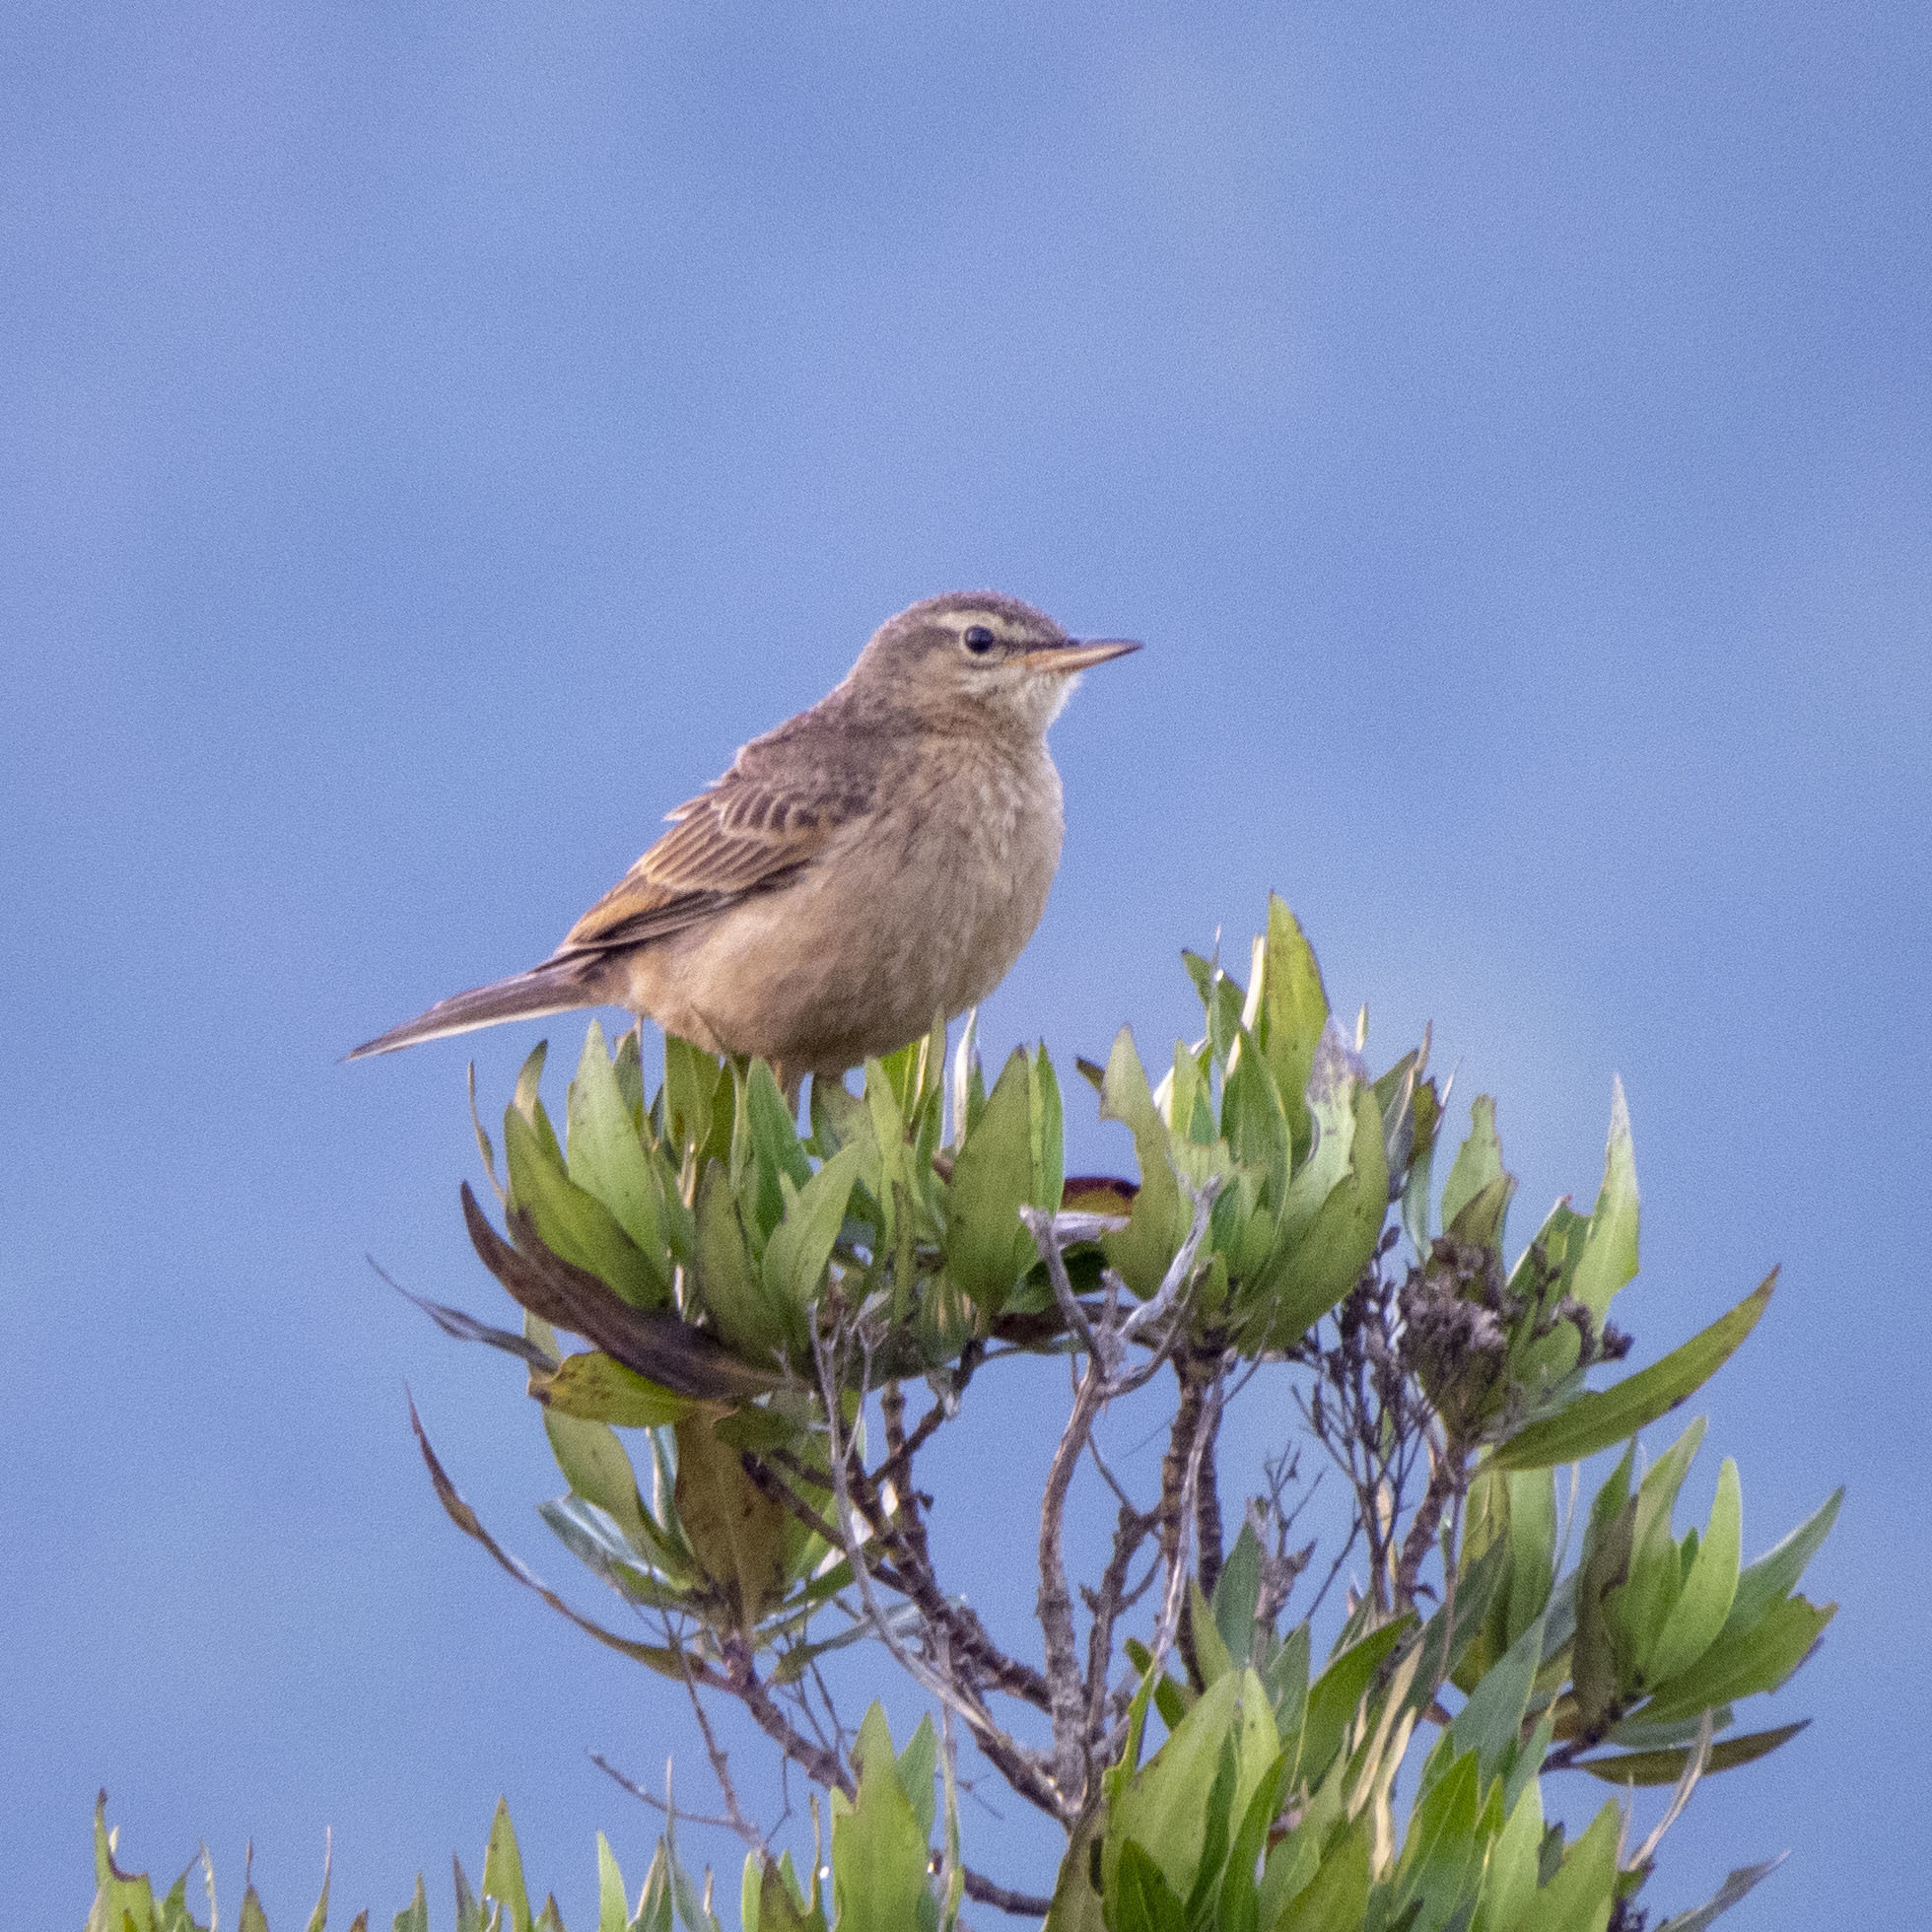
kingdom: Animalia
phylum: Chordata
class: Aves
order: Passeriformes
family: Motacillidae
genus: Anthus
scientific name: Anthus campestris
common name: Tawny pipit
